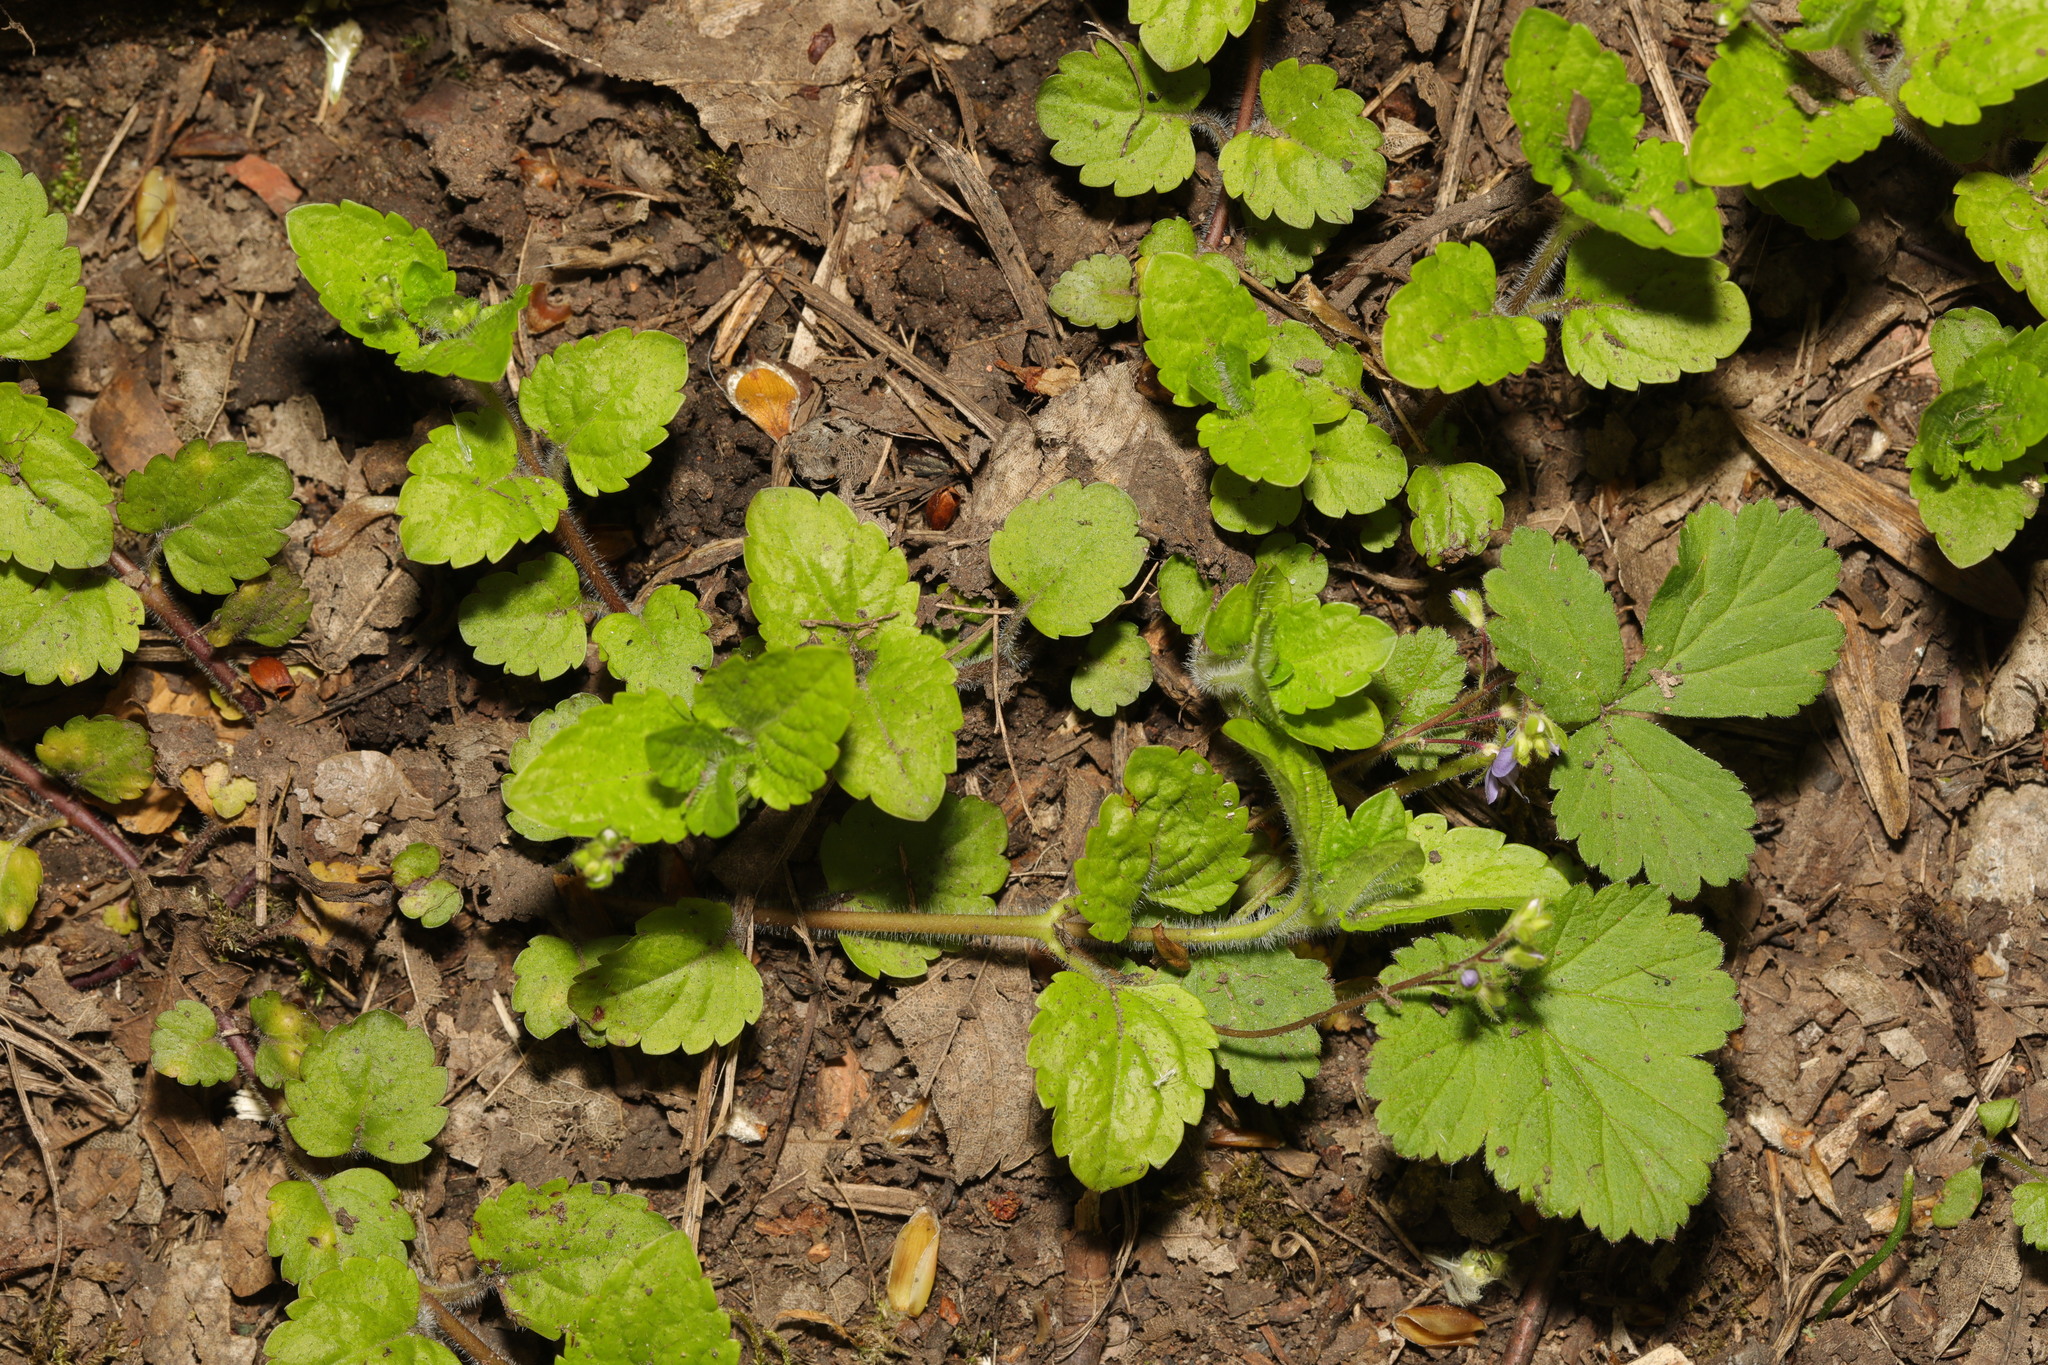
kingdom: Plantae
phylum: Tracheophyta
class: Magnoliopsida
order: Lamiales
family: Plantaginaceae
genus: Veronica
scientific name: Veronica montana
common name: Wood speedwell
